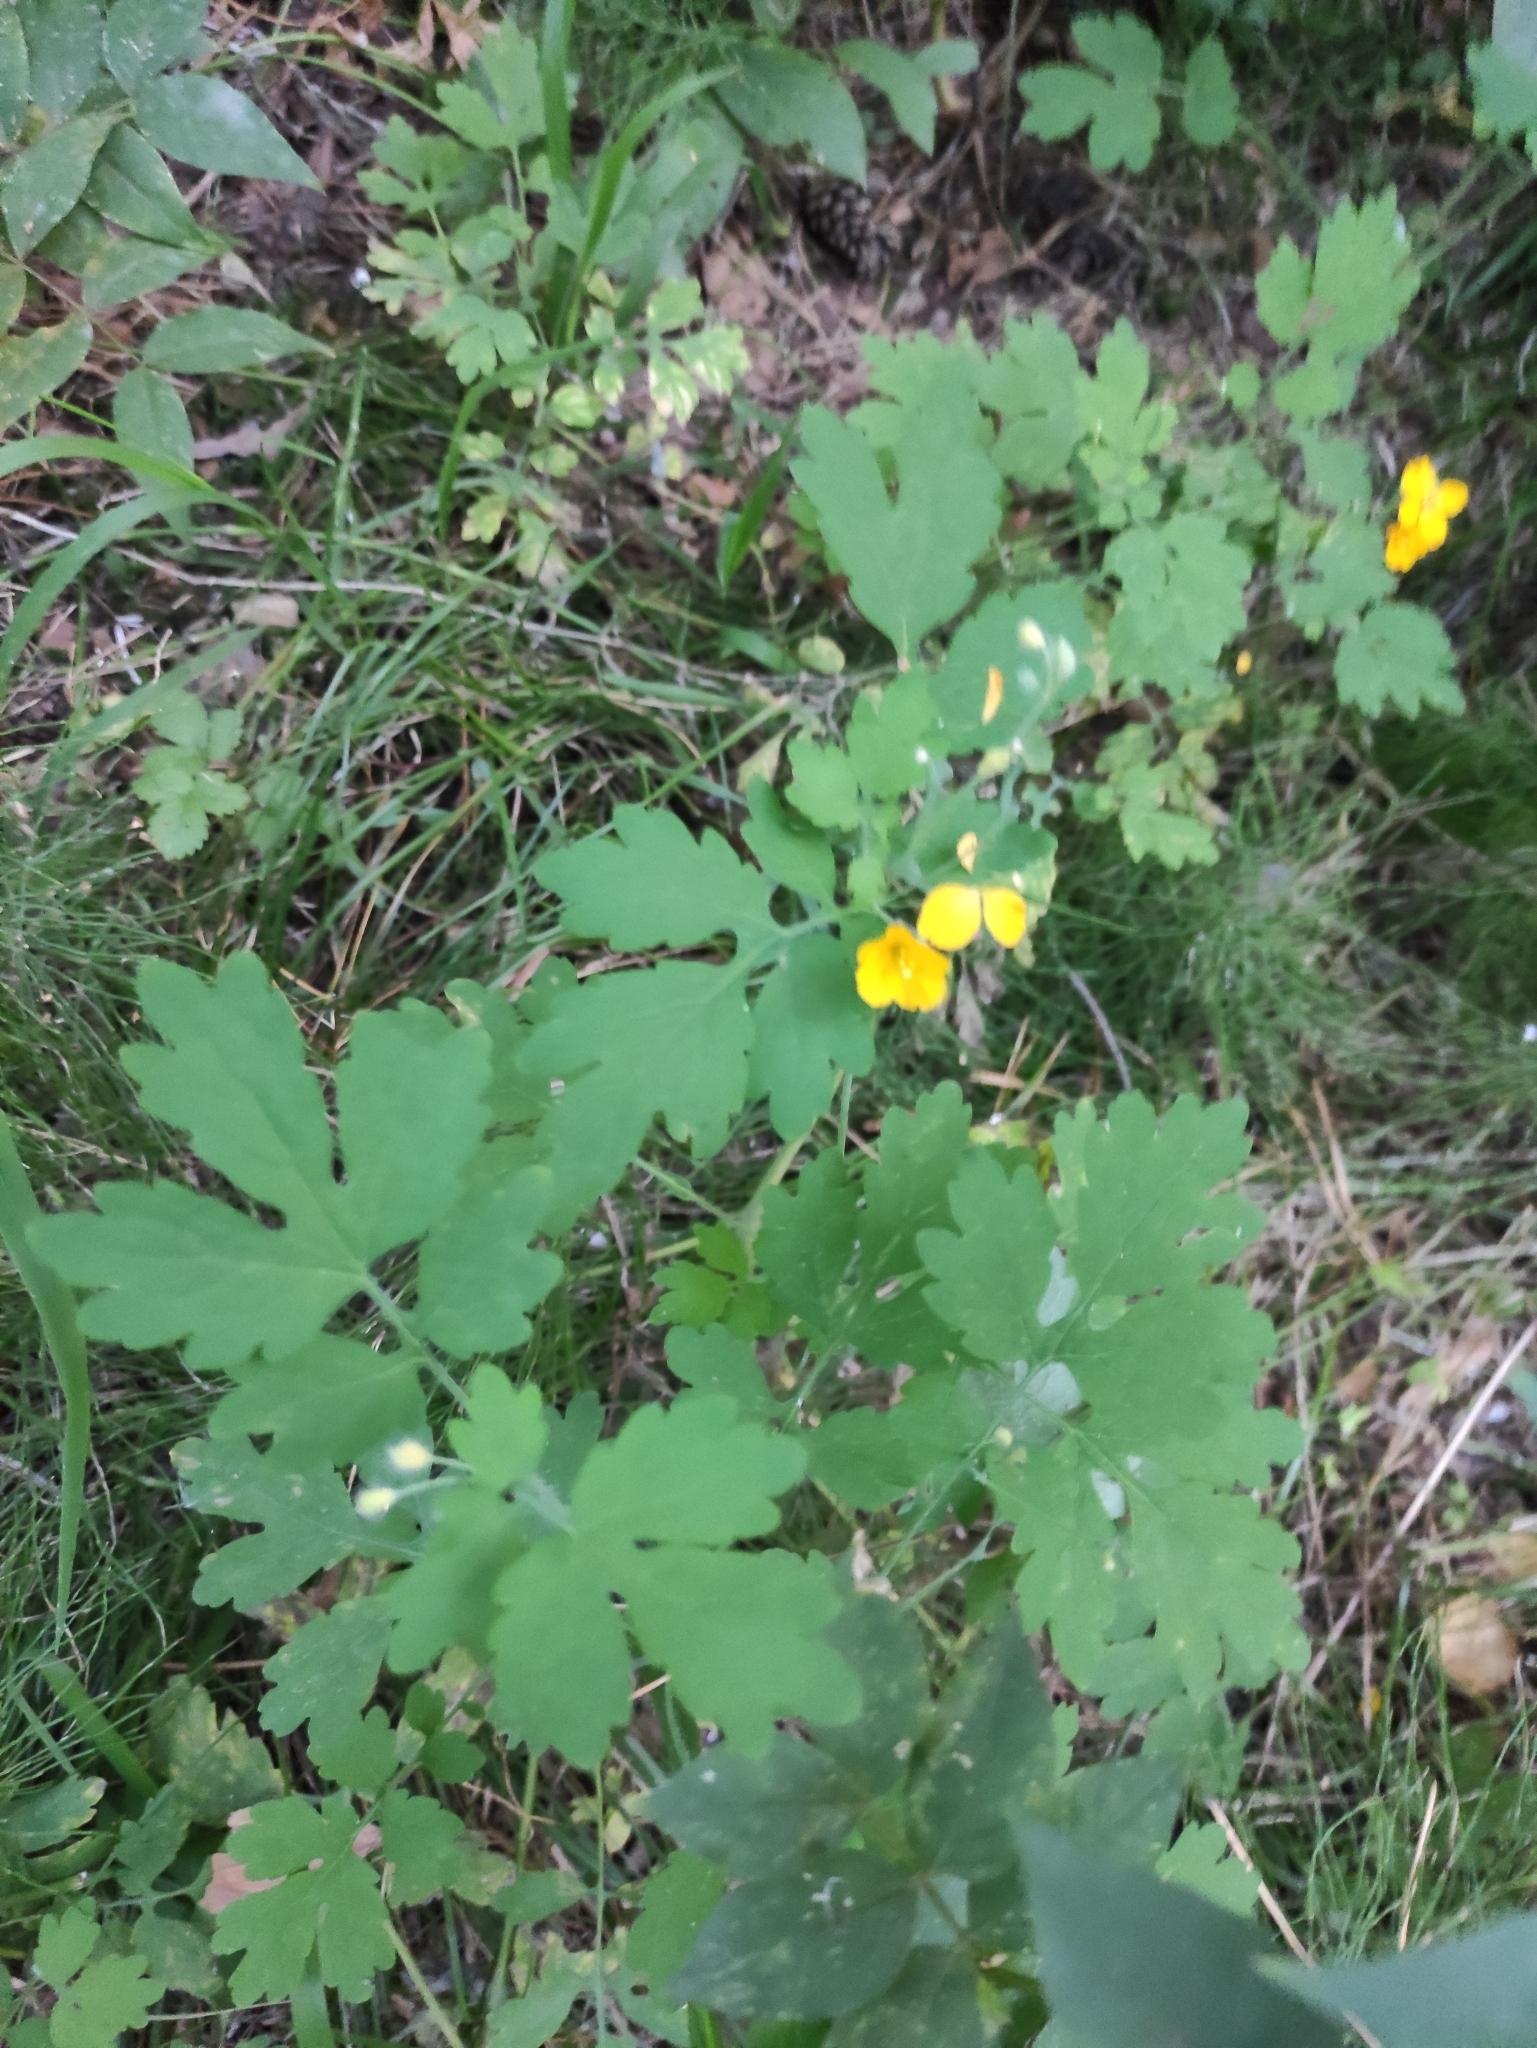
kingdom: Plantae
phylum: Tracheophyta
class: Magnoliopsida
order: Ranunculales
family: Papaveraceae
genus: Chelidonium
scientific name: Chelidonium majus
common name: Greater celandine
